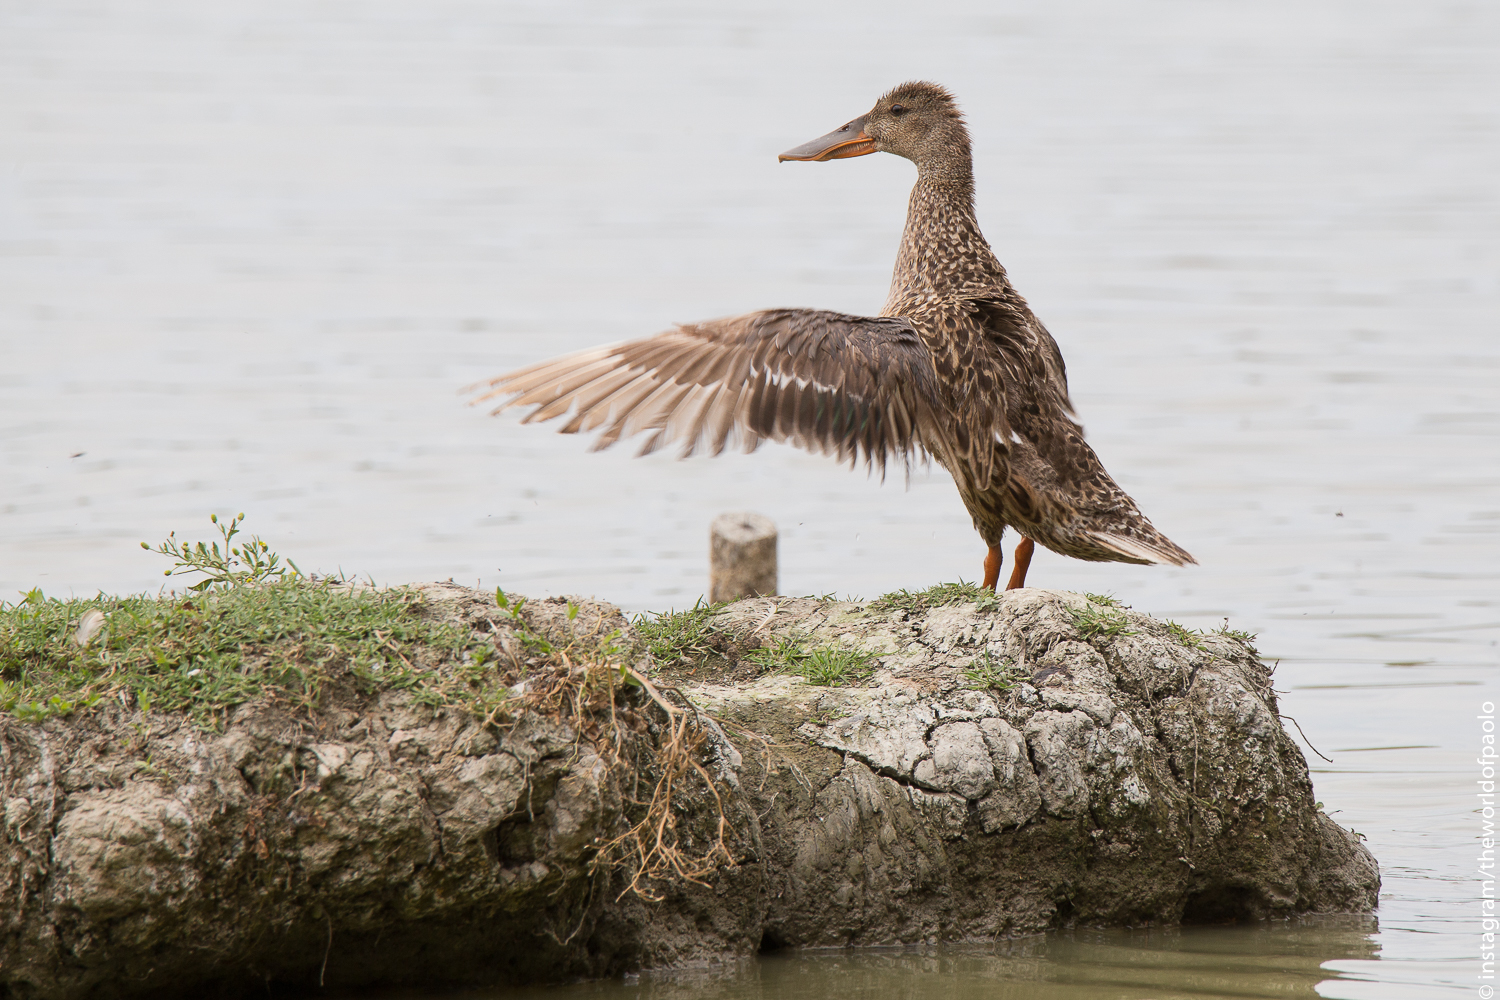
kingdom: Animalia
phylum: Chordata
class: Aves
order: Anseriformes
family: Anatidae
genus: Spatula
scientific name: Spatula clypeata
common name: Northern shoveler
